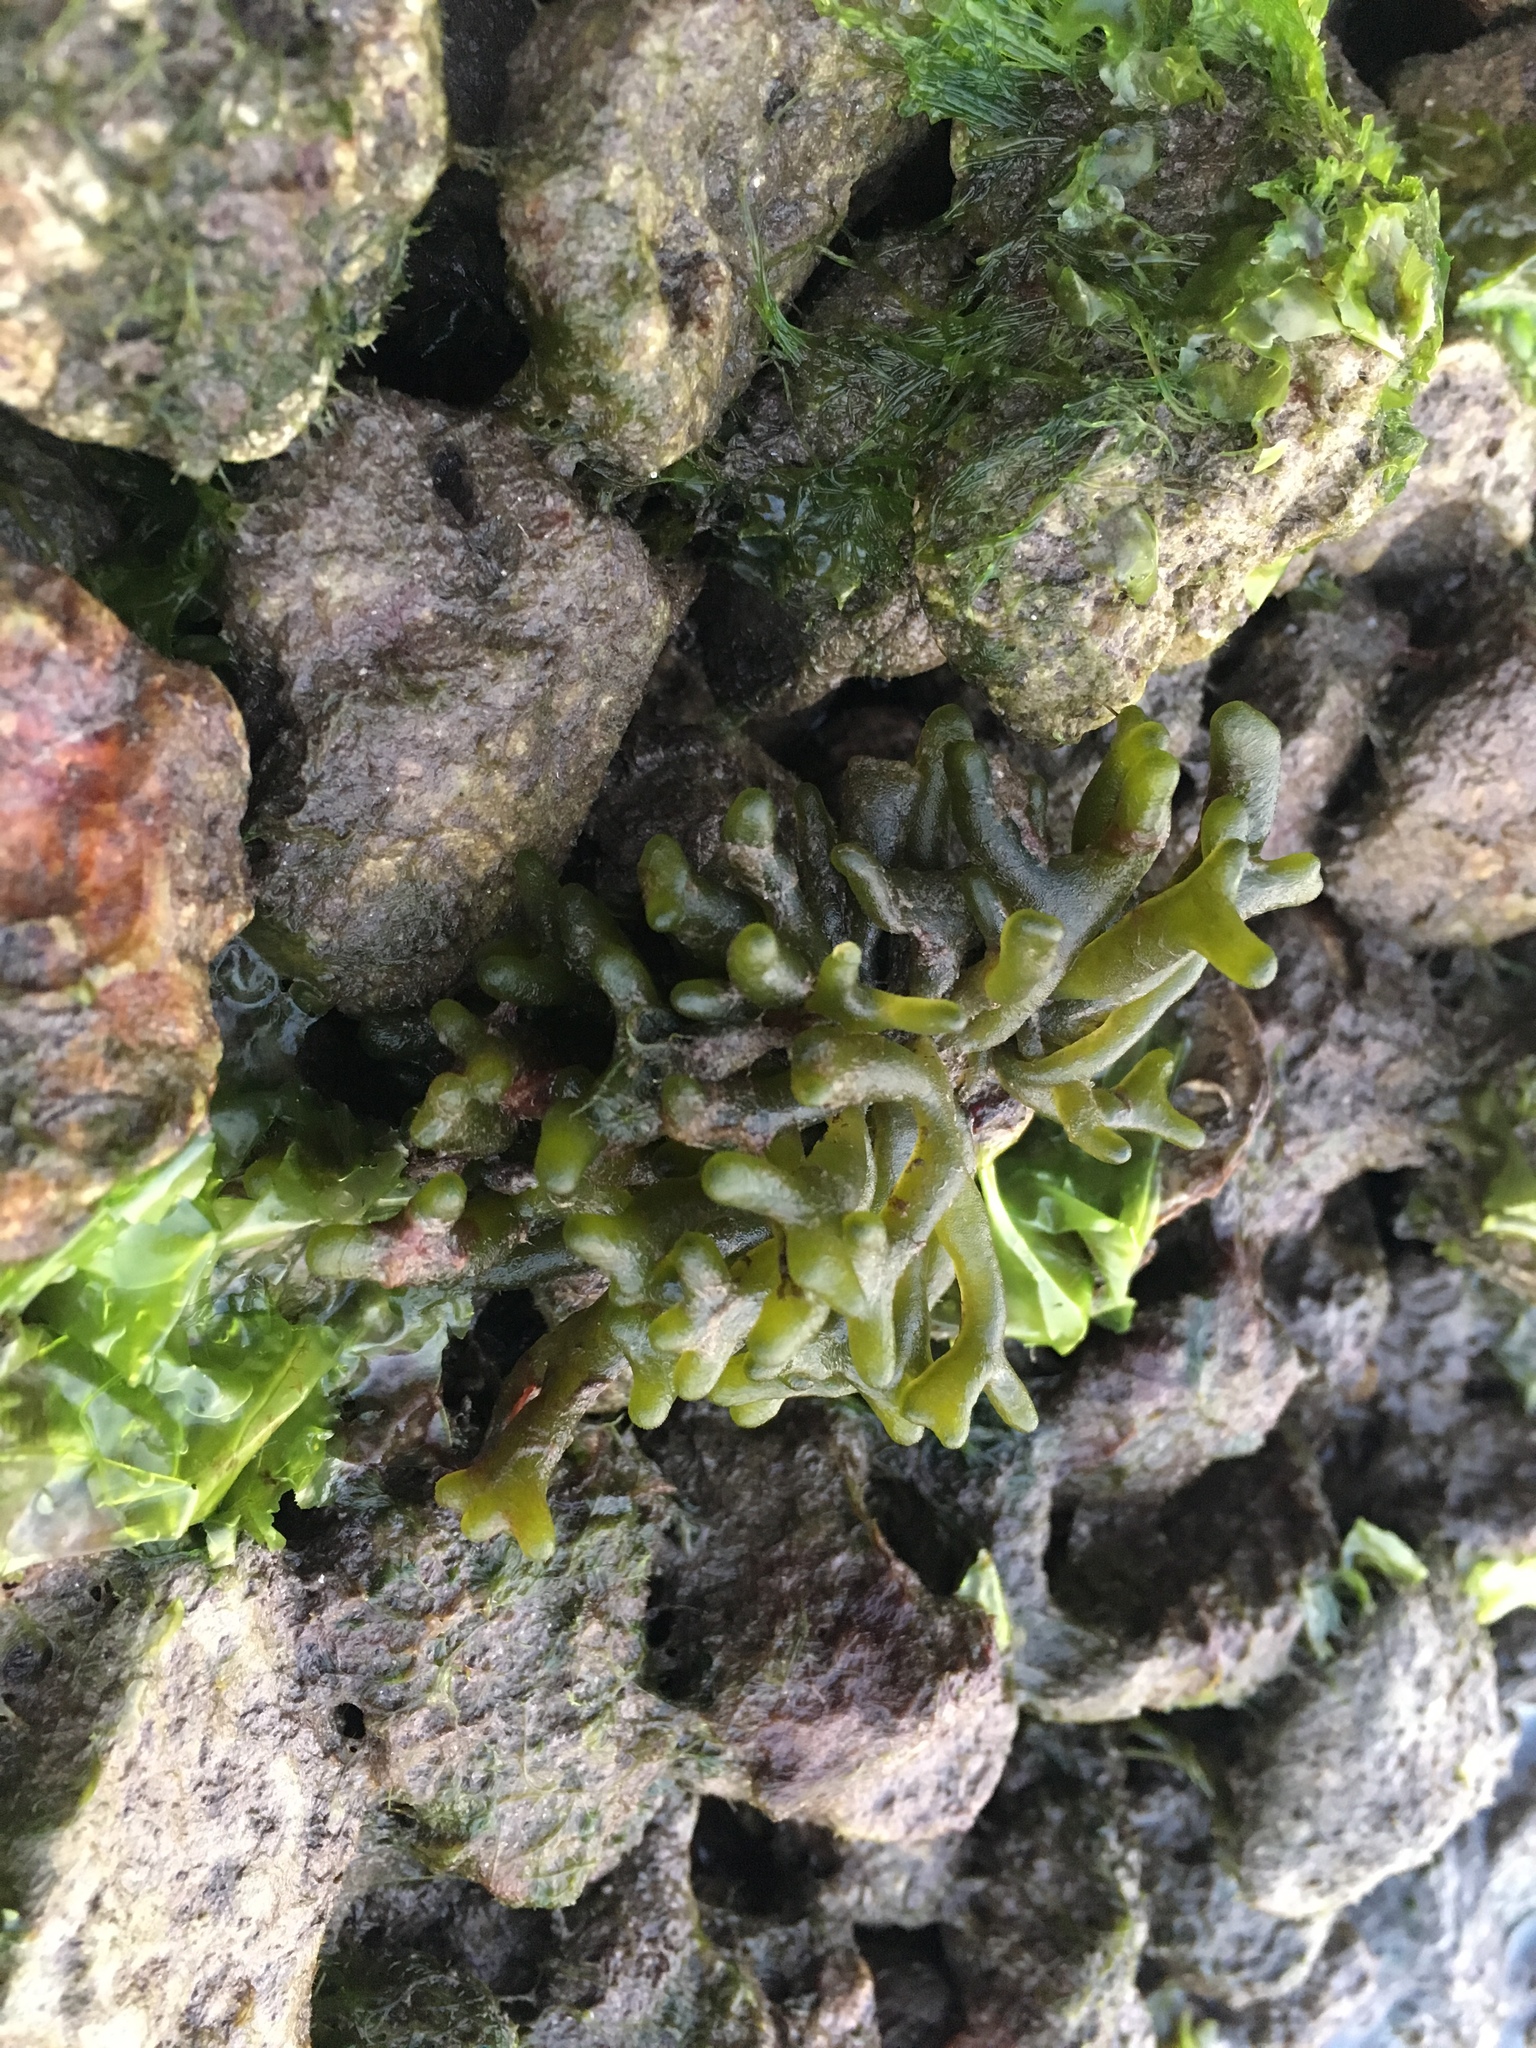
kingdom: Plantae
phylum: Chlorophyta
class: Ulvophyceae
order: Bryopsidales
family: Codiaceae
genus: Codium
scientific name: Codium fragile
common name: Dead man's fingers
